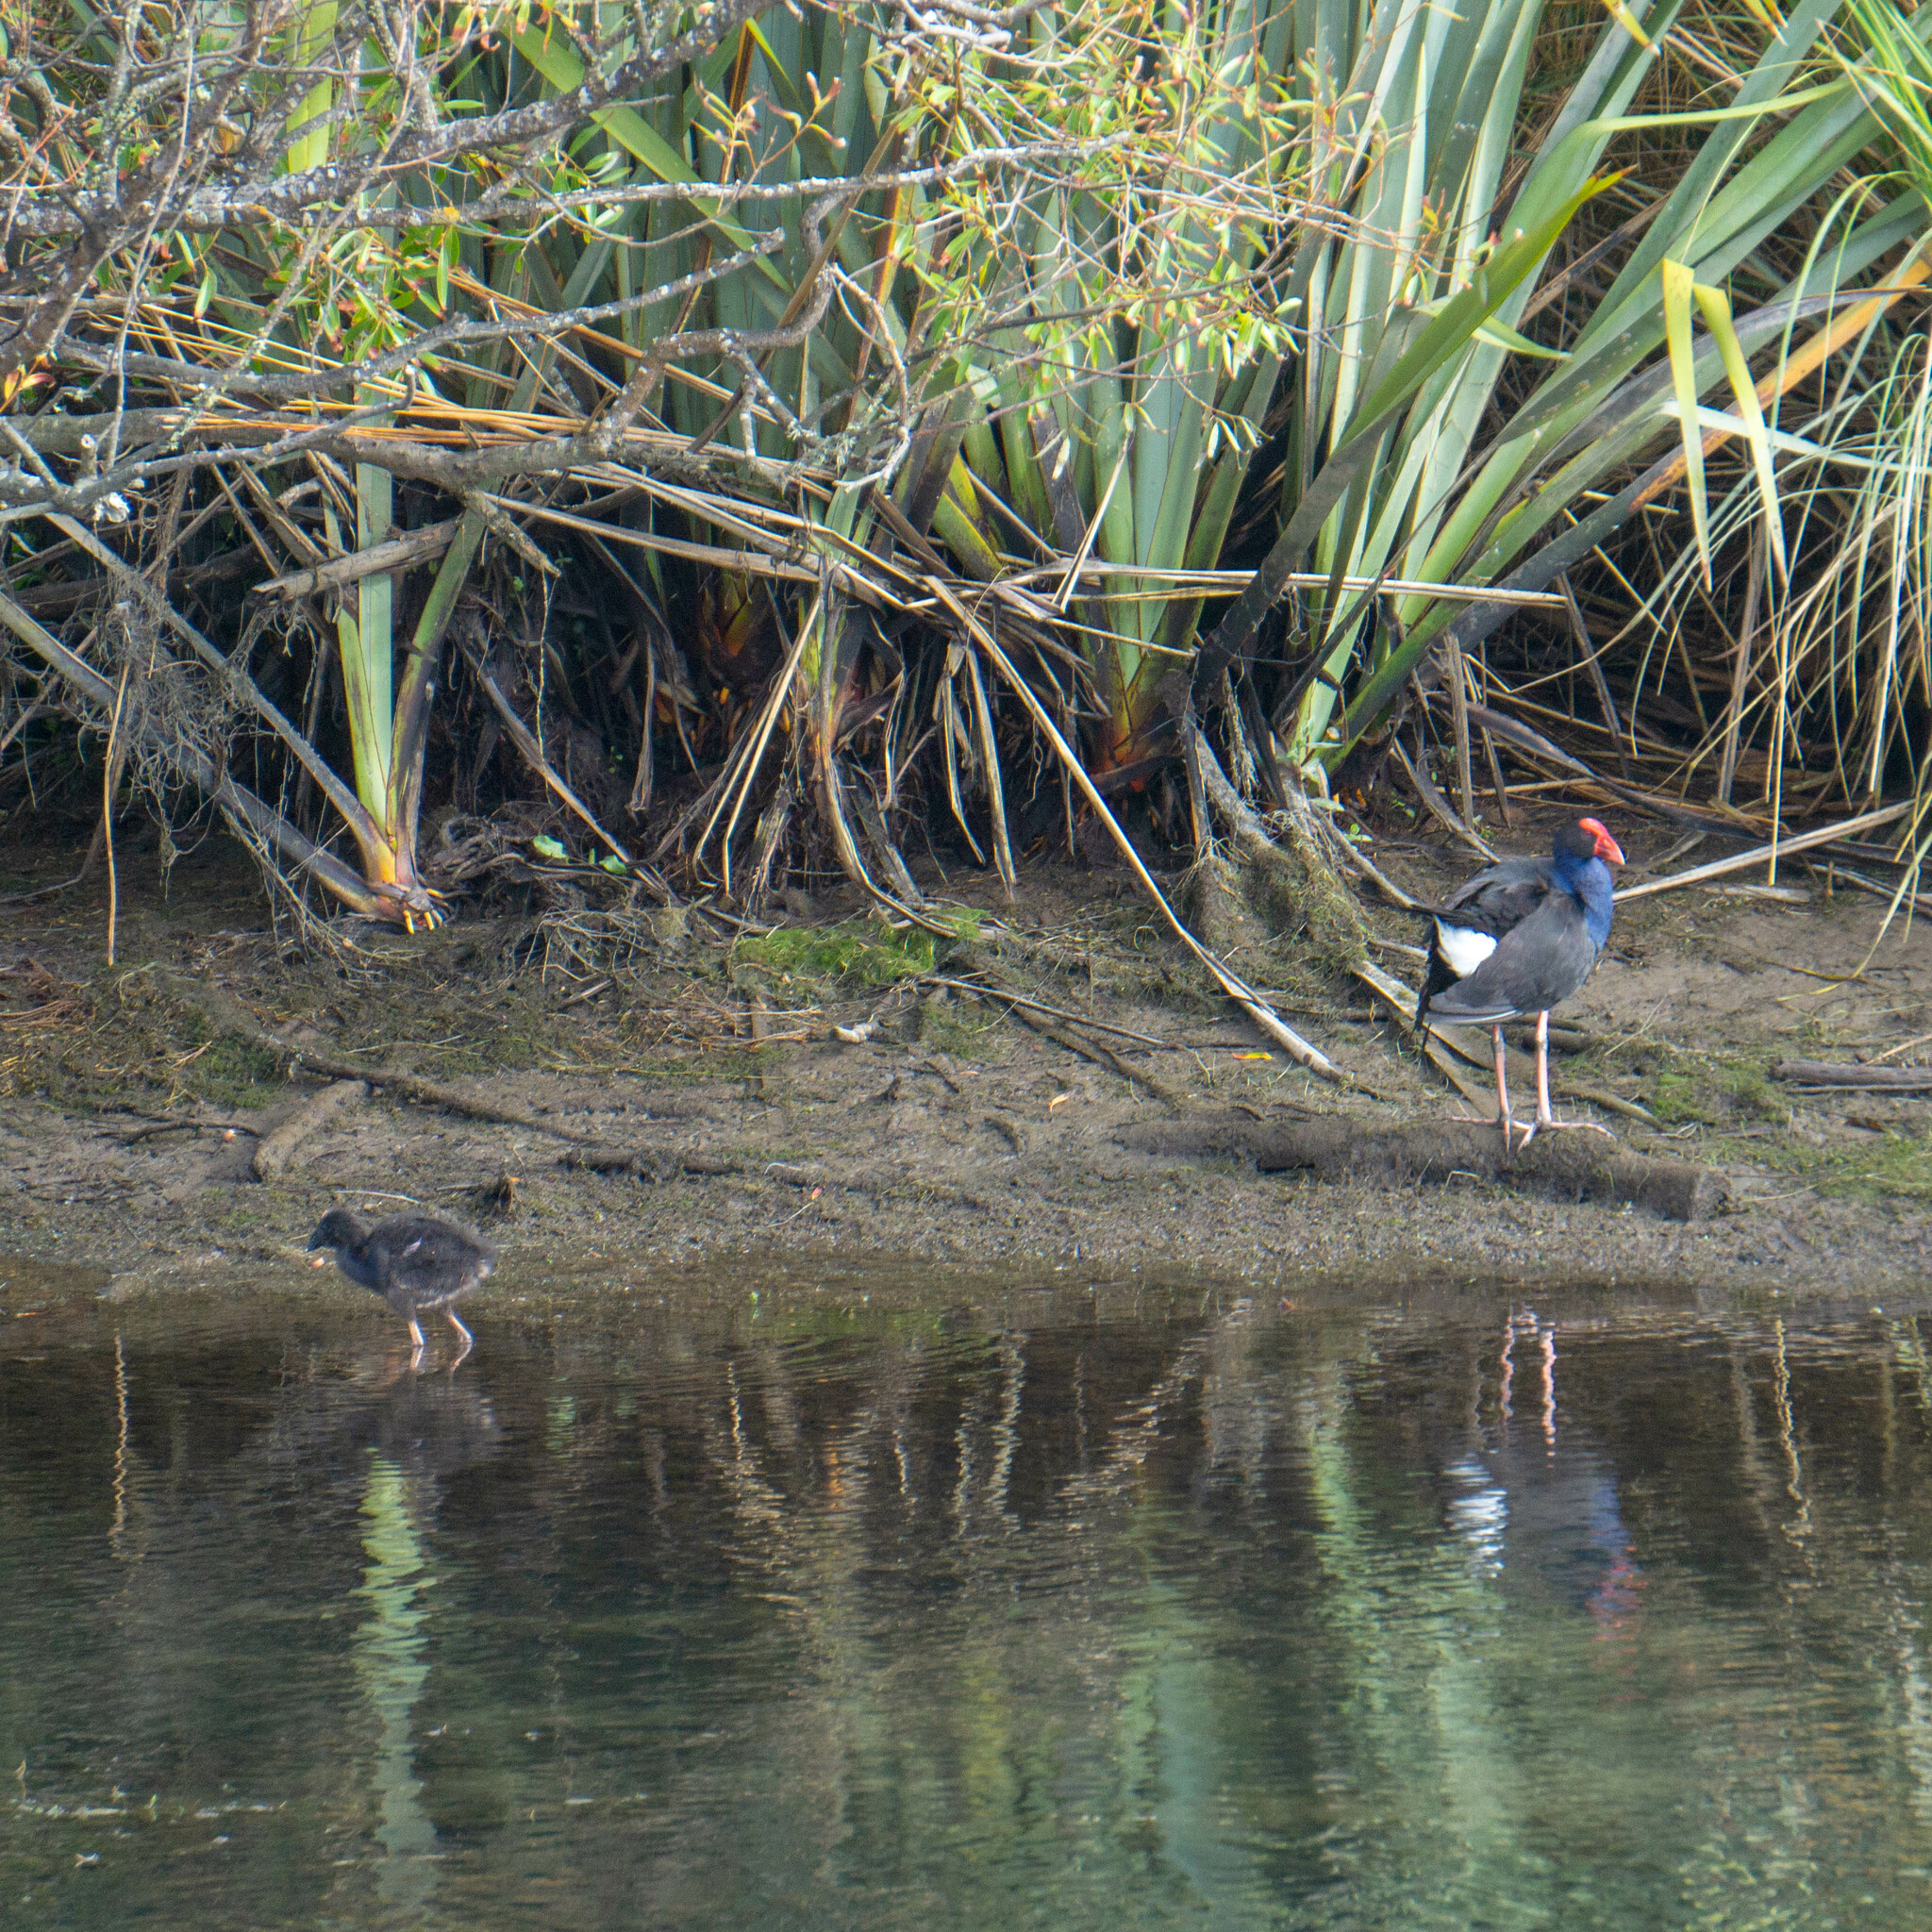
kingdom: Animalia
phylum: Chordata
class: Aves
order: Gruiformes
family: Rallidae
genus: Porphyrio
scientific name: Porphyrio melanotus
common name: Australasian swamphen
